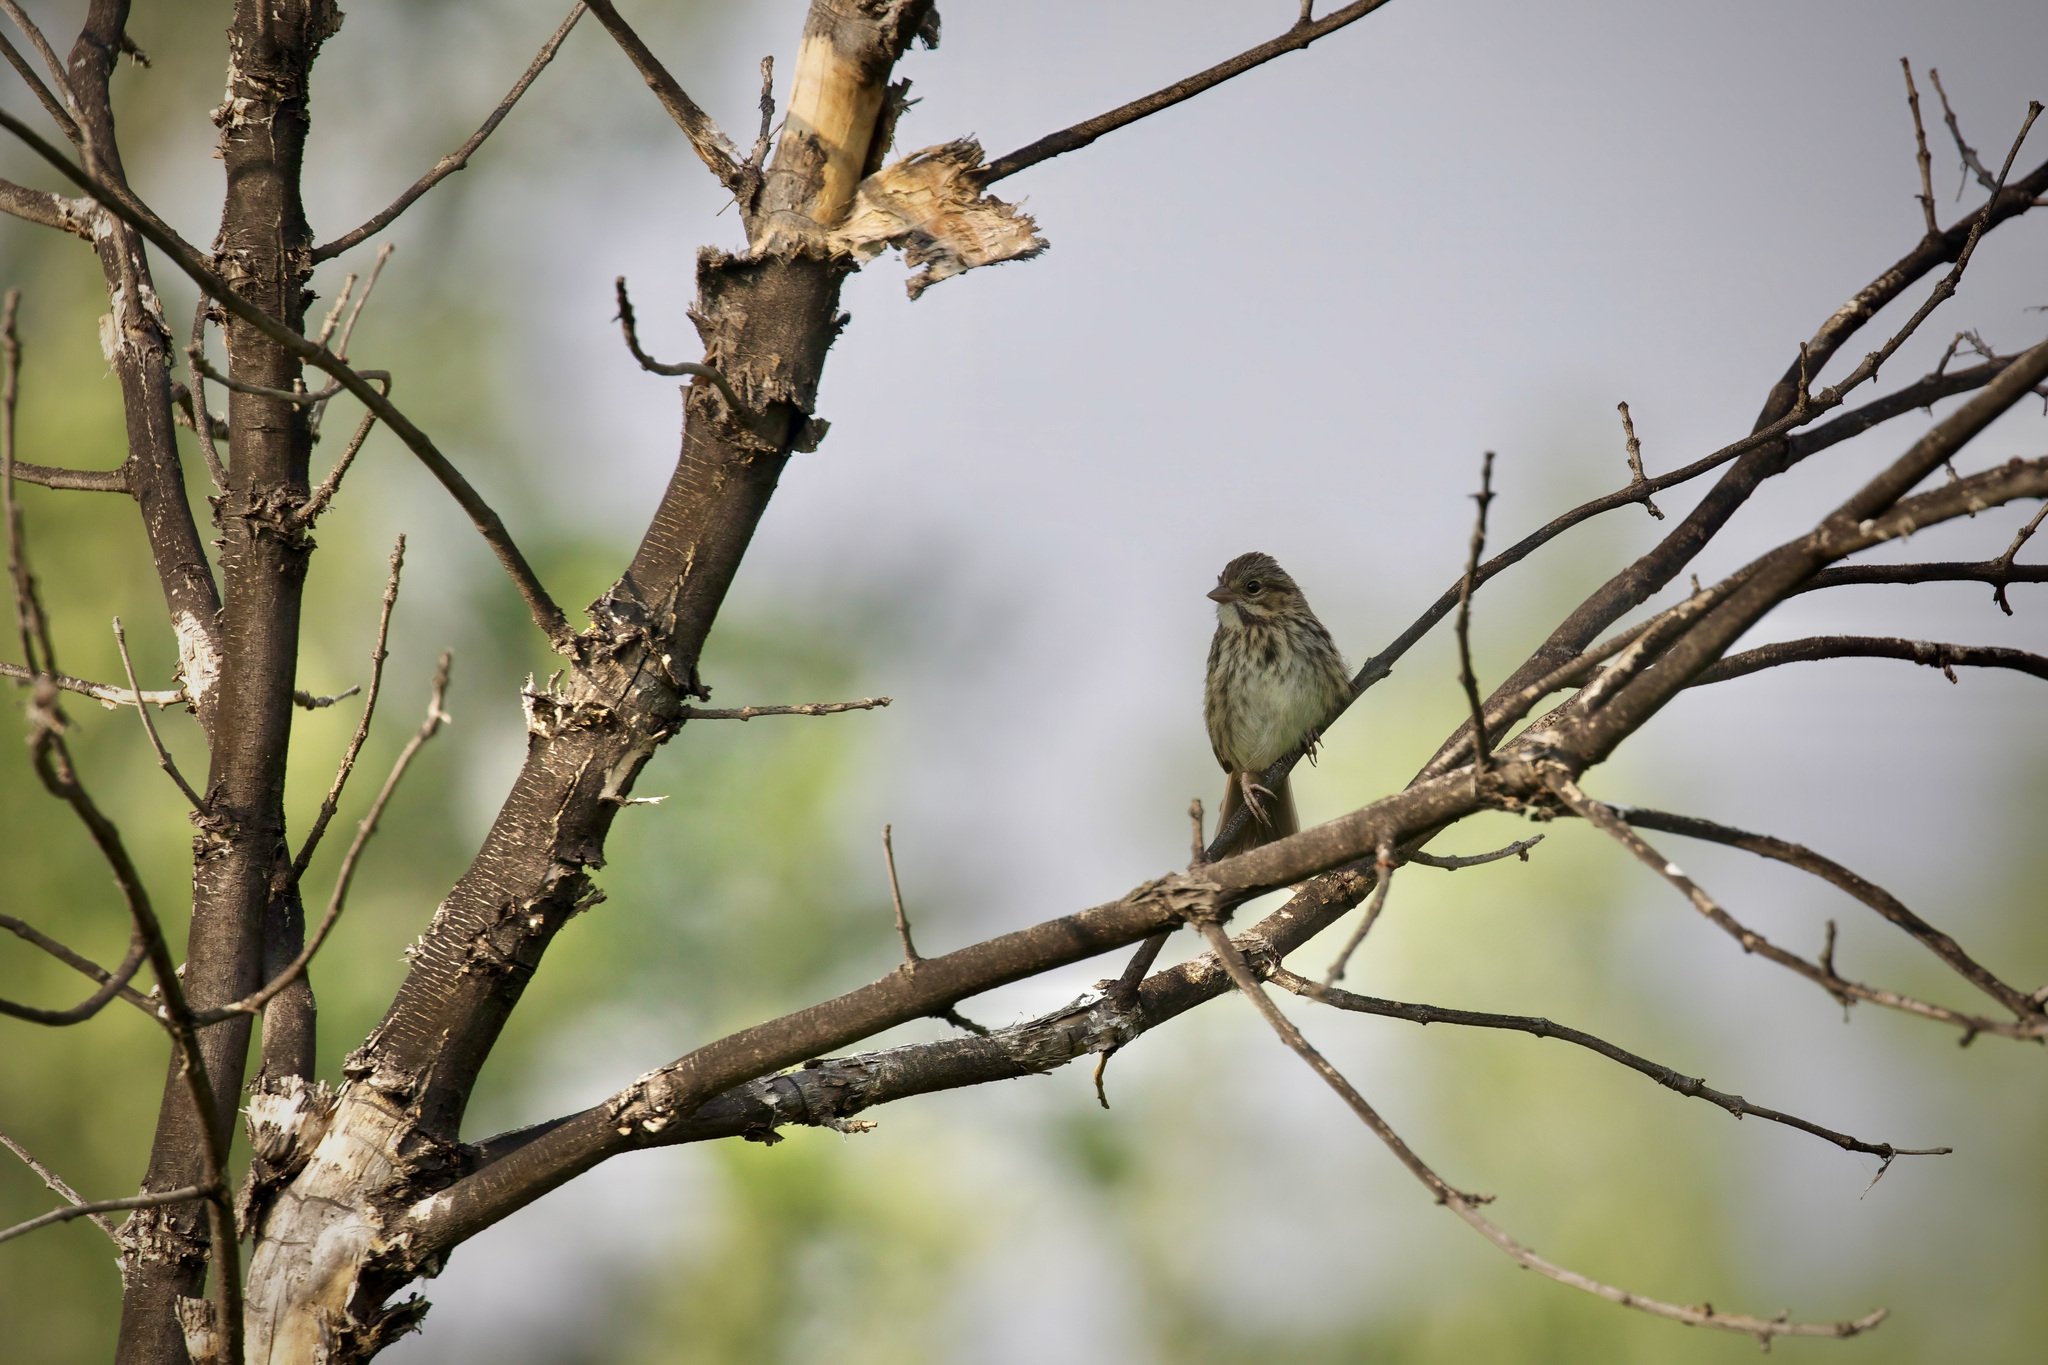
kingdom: Animalia
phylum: Chordata
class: Aves
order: Passeriformes
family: Passerellidae
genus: Melospiza
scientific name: Melospiza melodia
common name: Song sparrow
